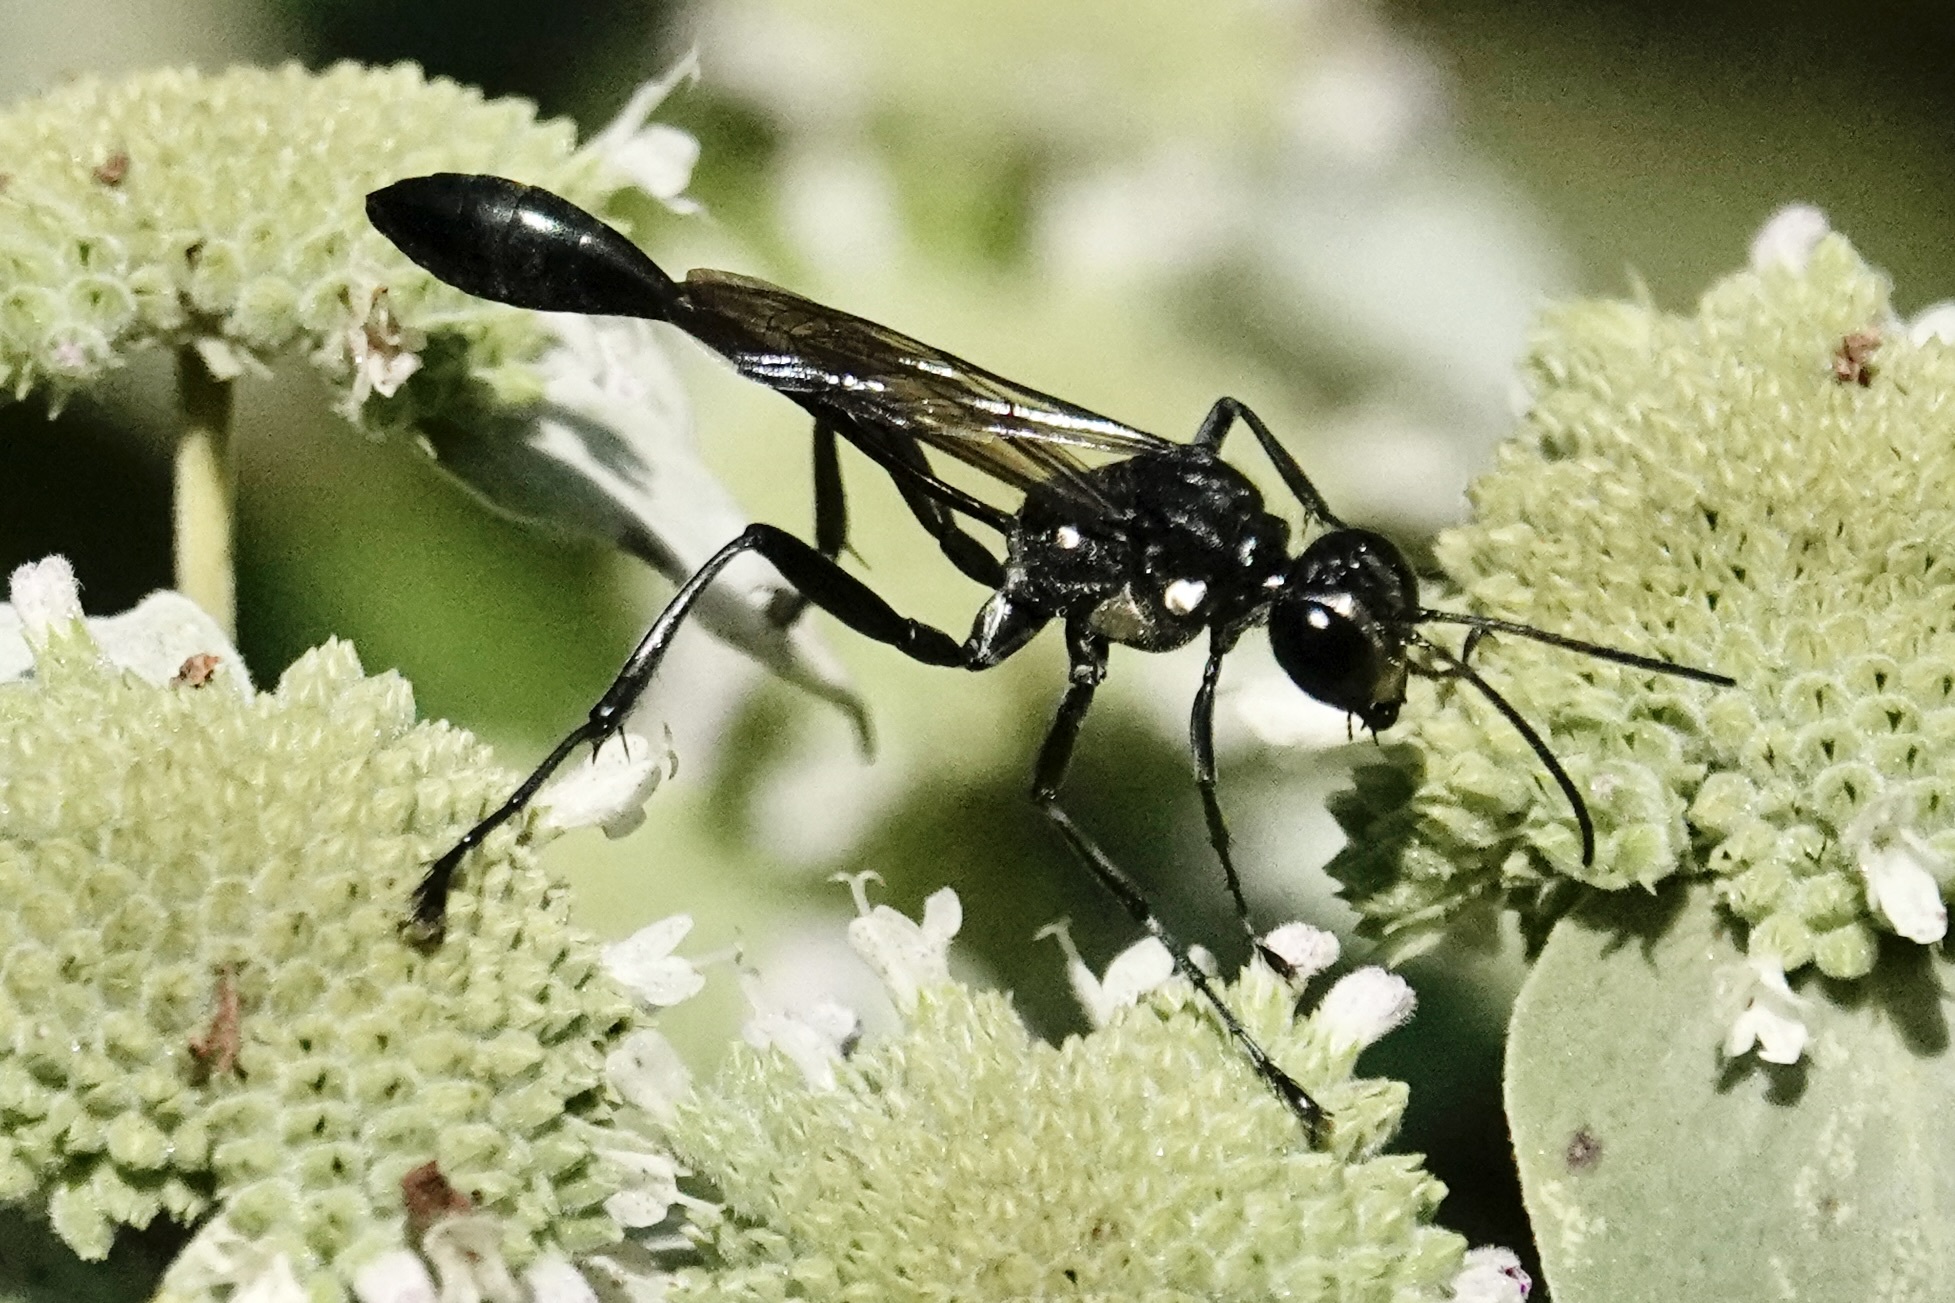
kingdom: Animalia
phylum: Arthropoda
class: Insecta
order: Hymenoptera
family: Sphecidae
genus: Eremnophila
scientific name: Eremnophila aureonotata
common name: Gold-marked thread-waisted wasp
